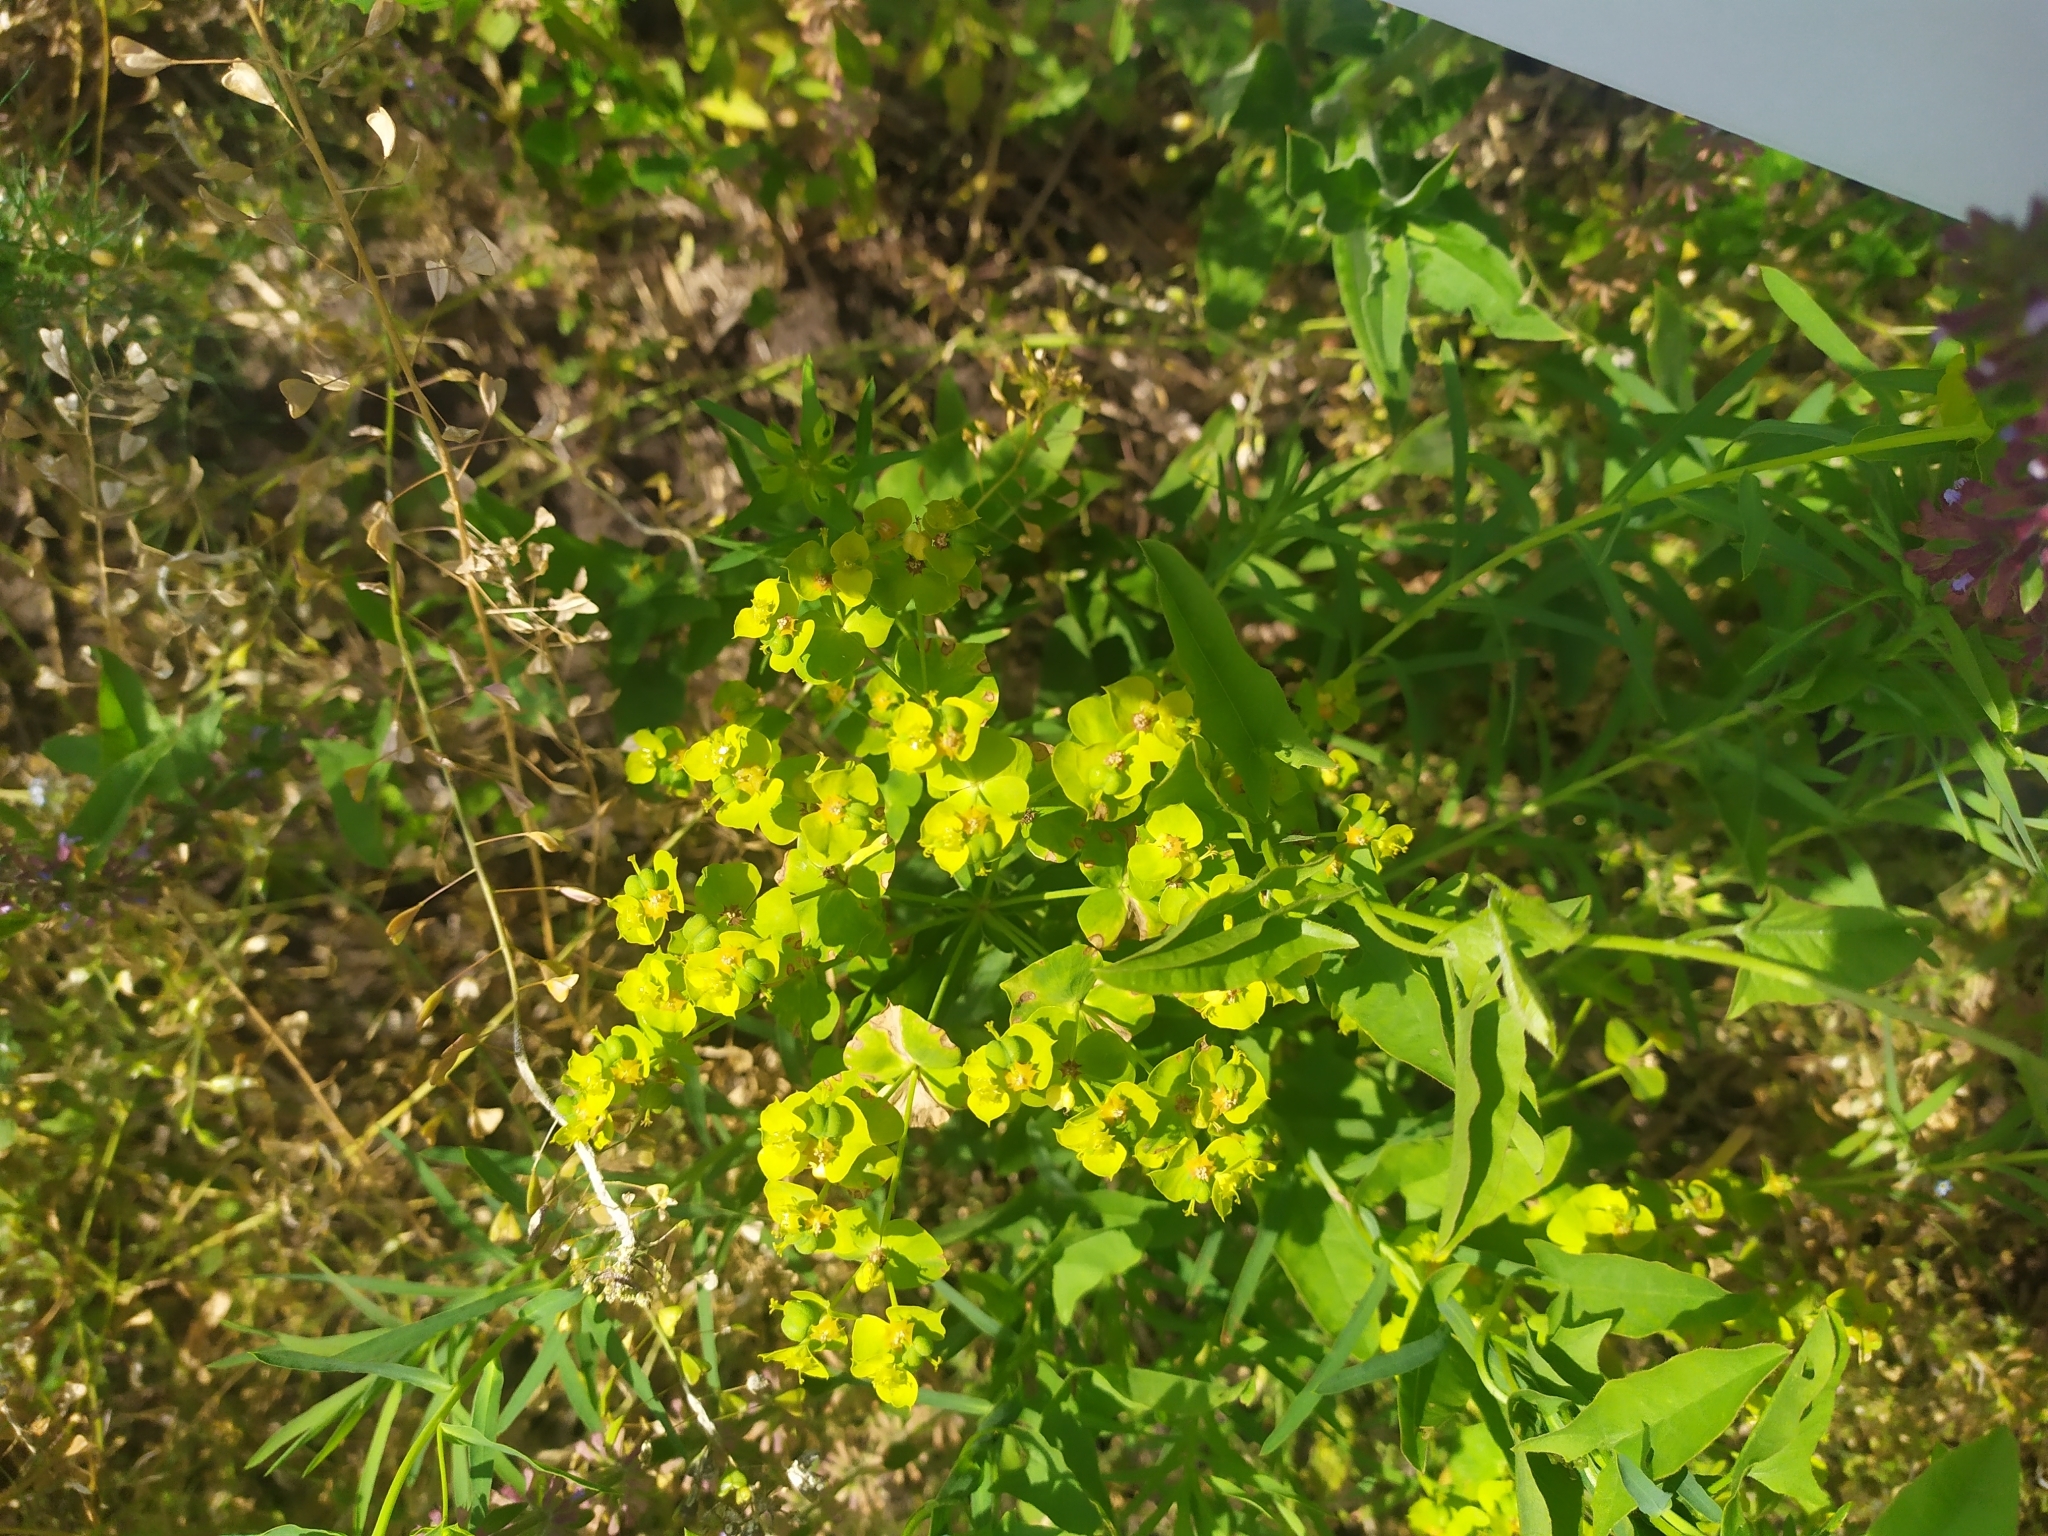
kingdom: Plantae
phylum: Tracheophyta
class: Magnoliopsida
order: Malpighiales
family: Euphorbiaceae
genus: Euphorbia
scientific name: Euphorbia virgata
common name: Leafy spurge
